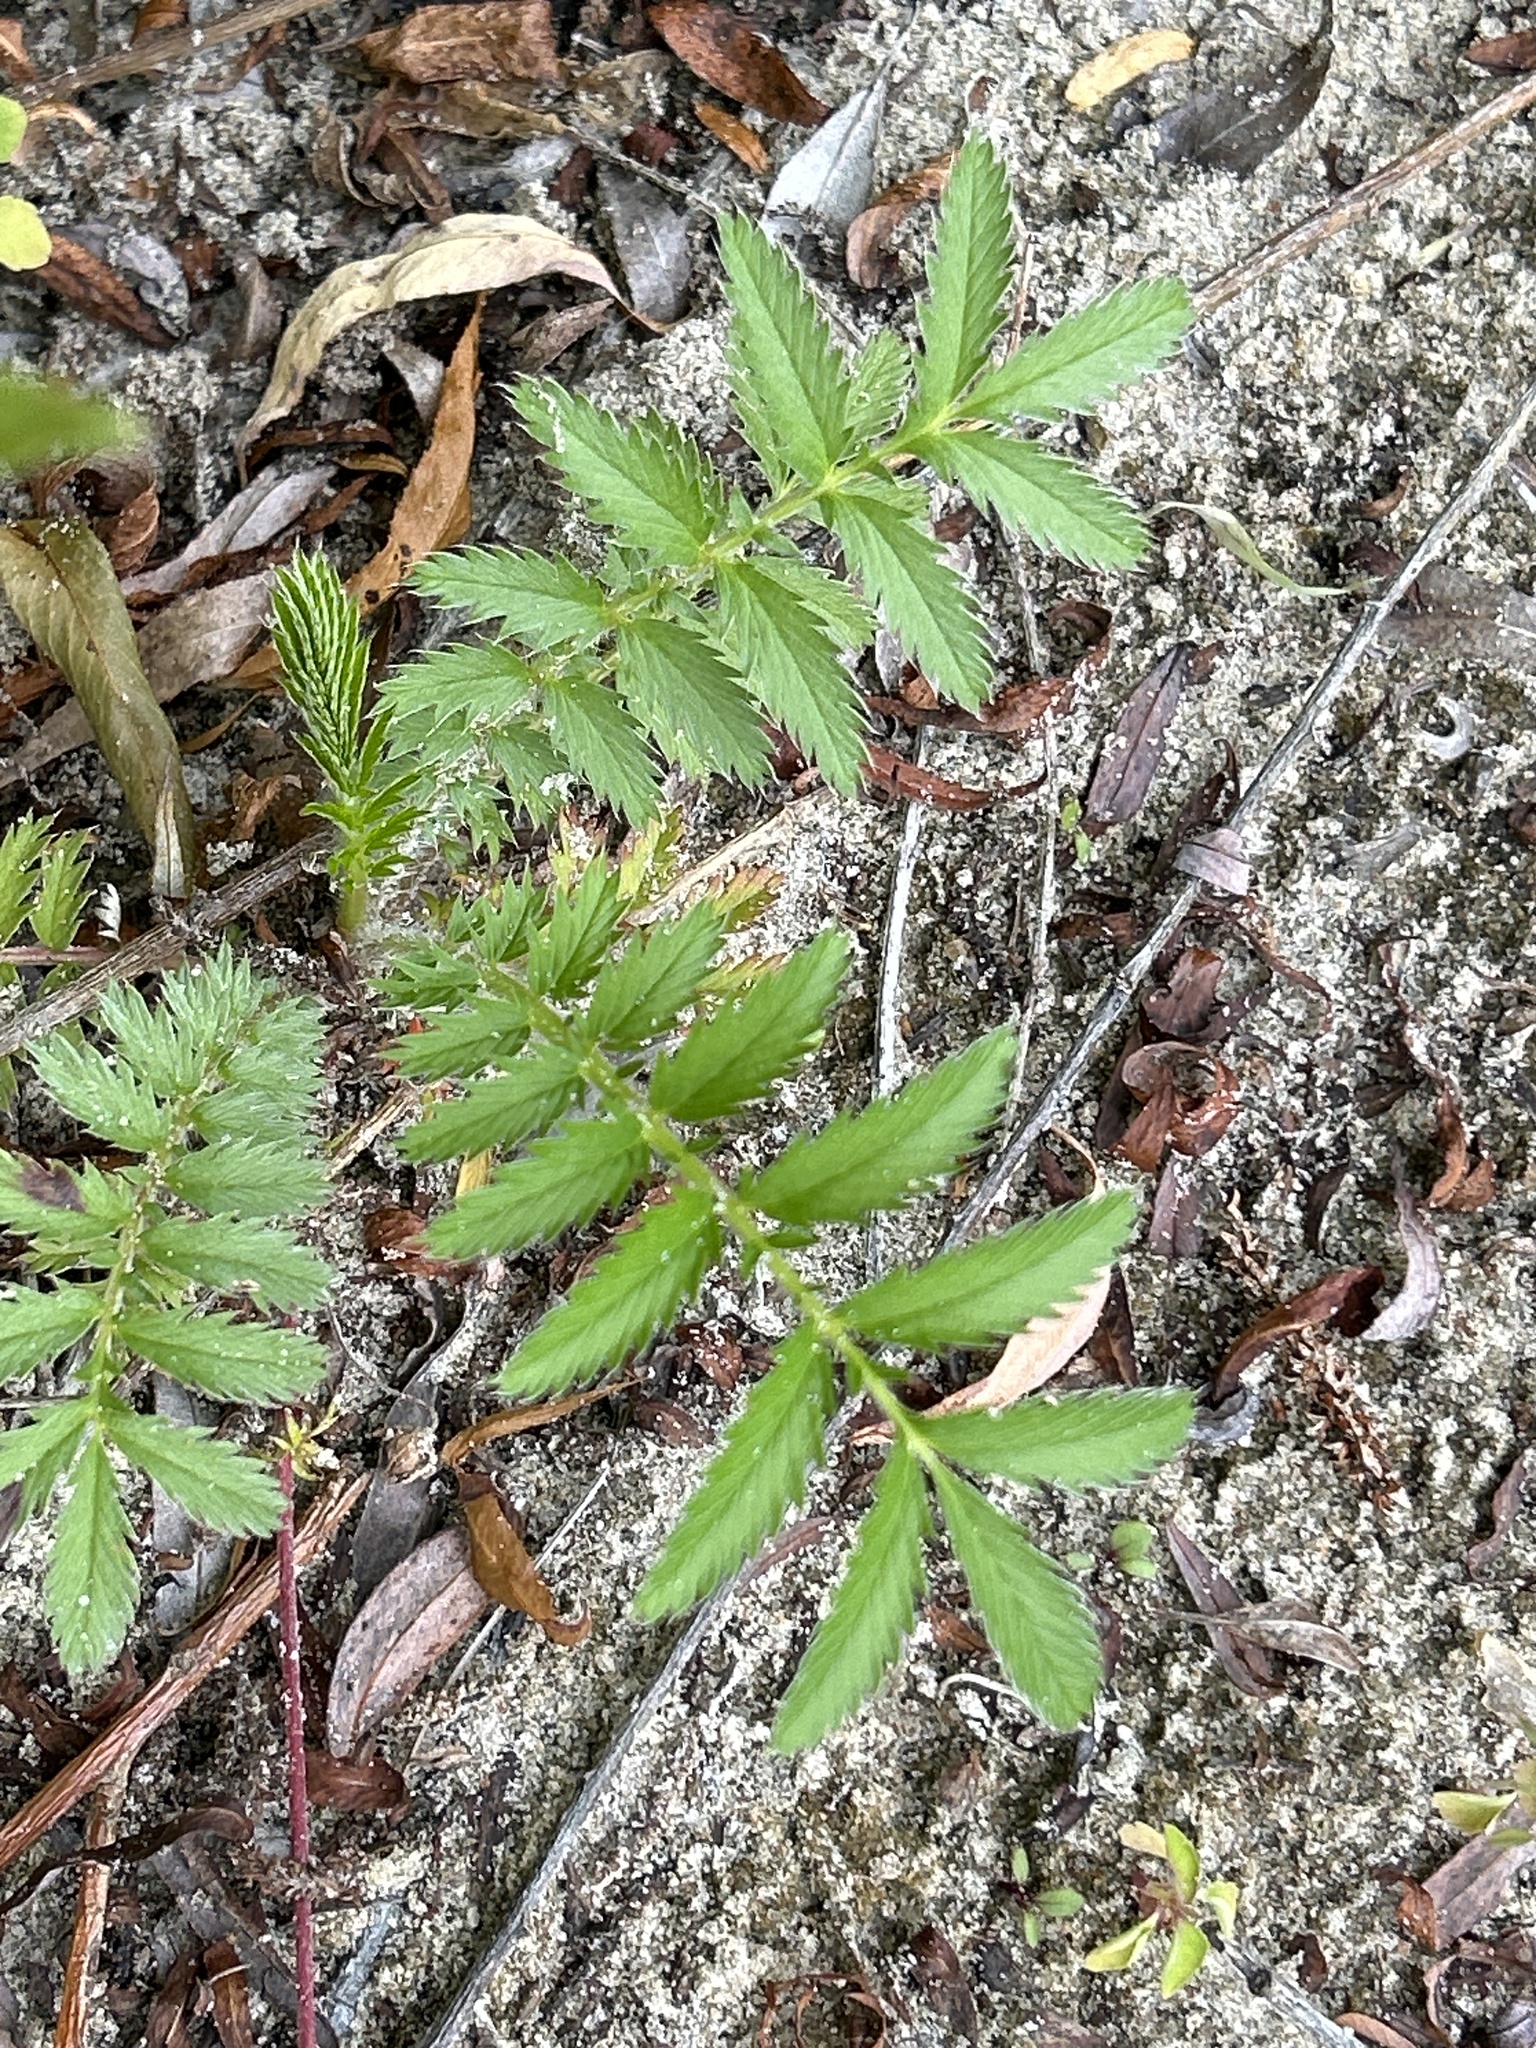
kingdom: Plantae
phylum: Tracheophyta
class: Magnoliopsida
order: Rosales
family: Rosaceae
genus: Argentina
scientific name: Argentina anserina
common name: Common silverweed
